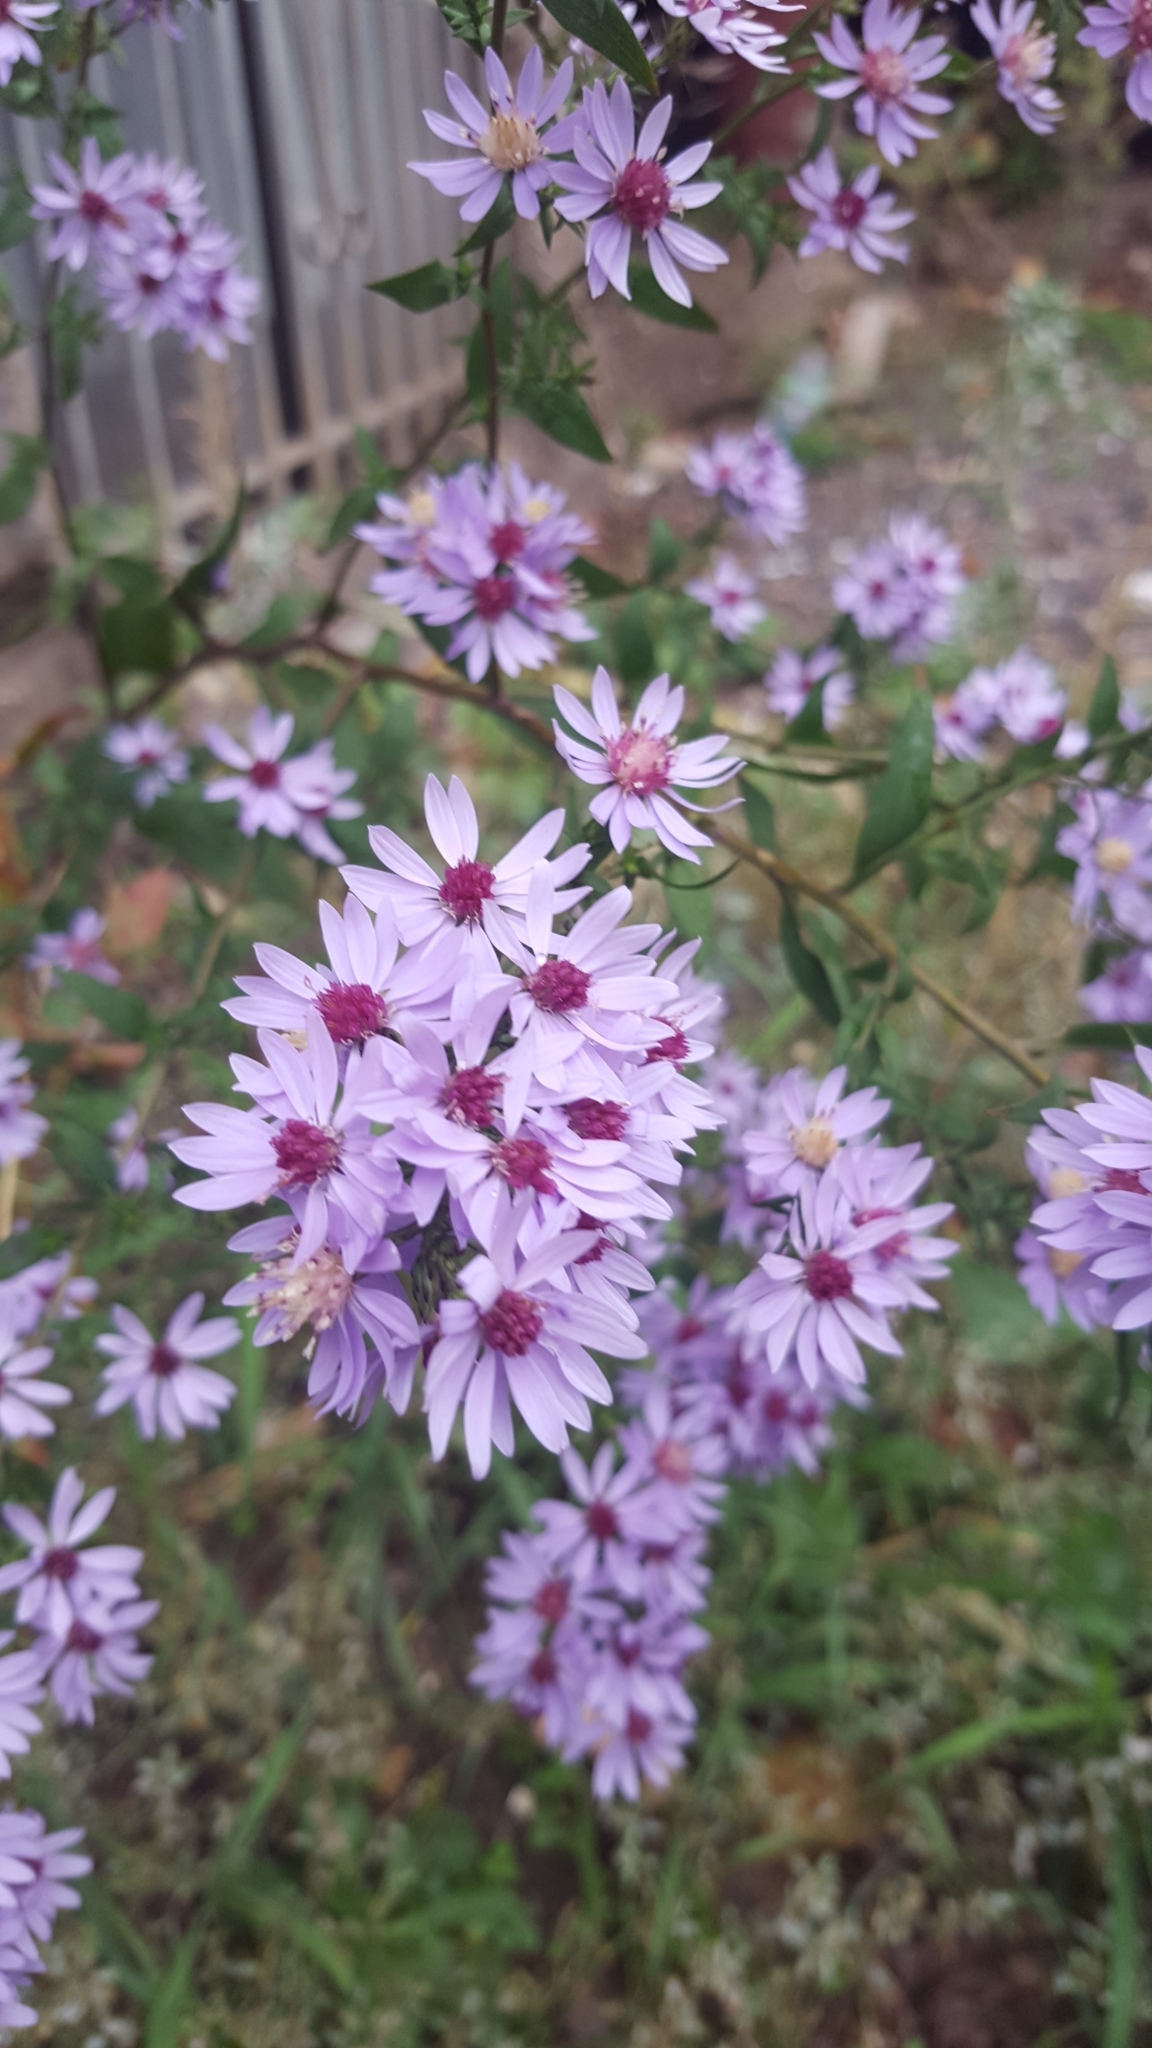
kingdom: Plantae
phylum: Tracheophyta
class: Magnoliopsida
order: Asterales
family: Asteraceae
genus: Symphyotrichum
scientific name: Symphyotrichum cordifolium
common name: Beeweed
